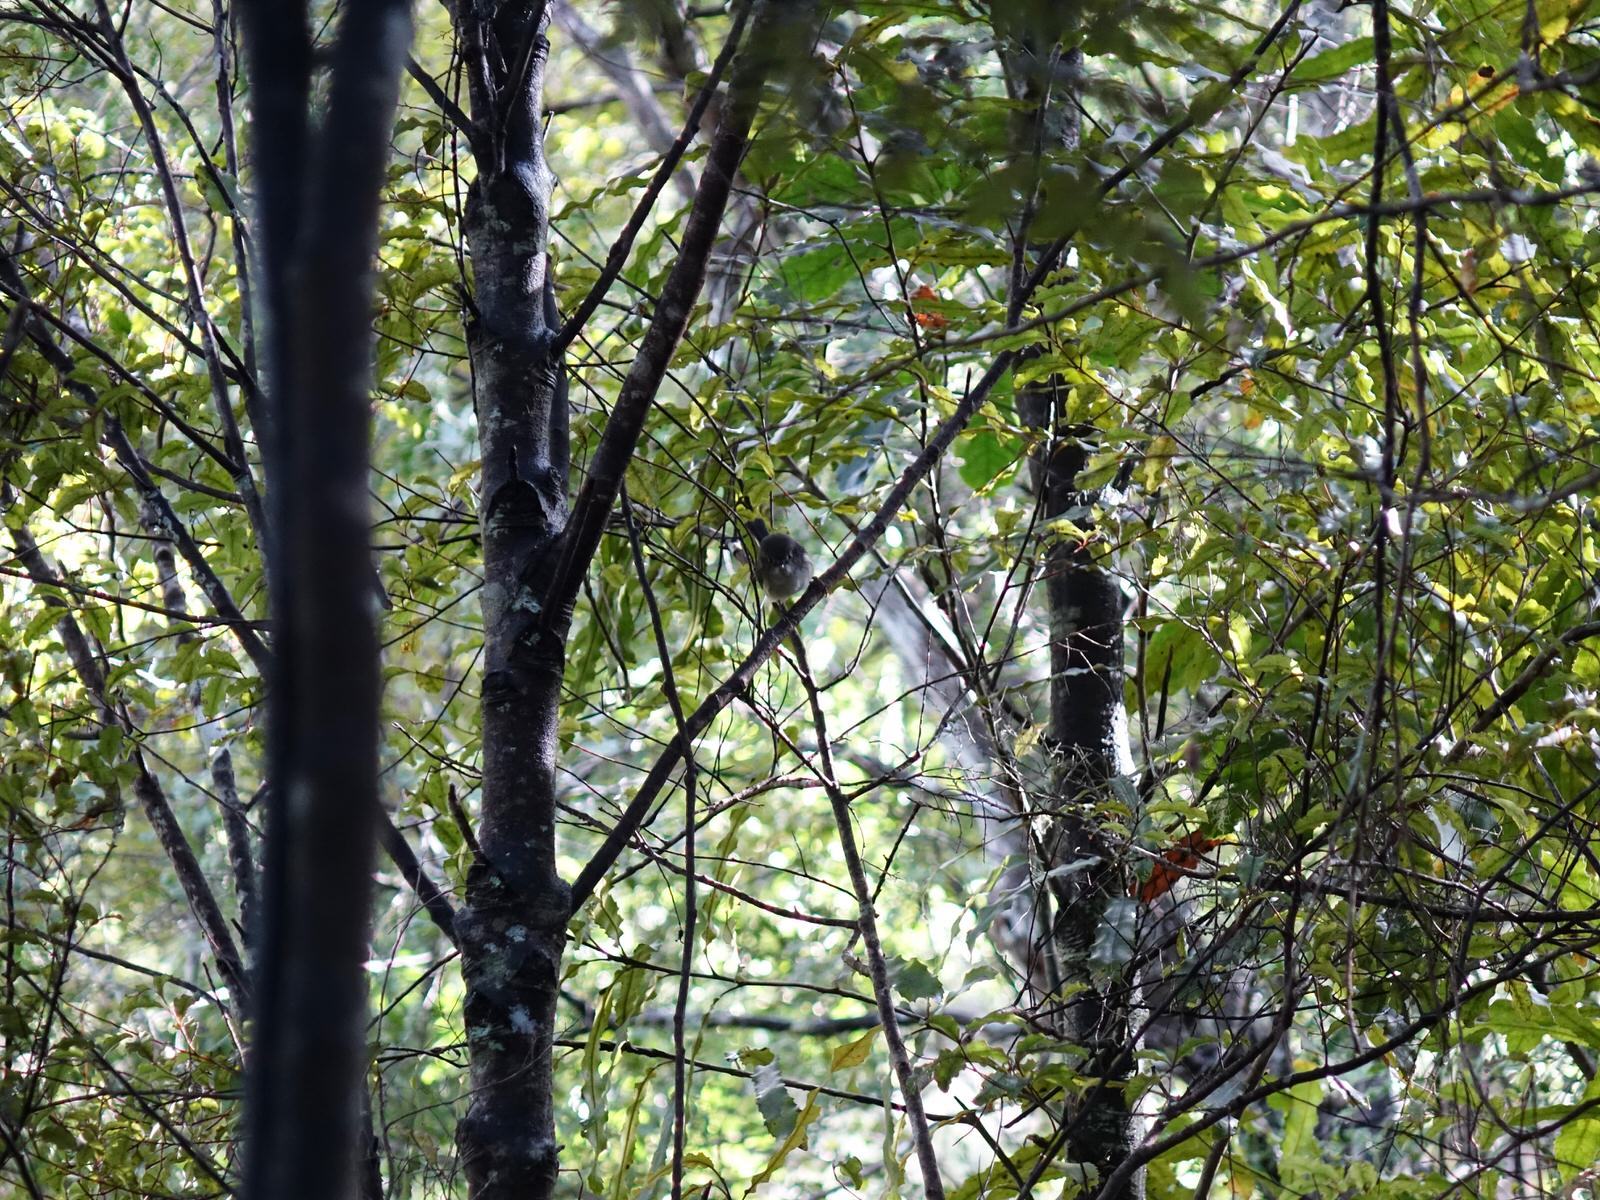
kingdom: Animalia
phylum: Chordata
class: Aves
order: Passeriformes
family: Petroicidae
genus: Petroica
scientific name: Petroica macrocephala
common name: Tomtit
